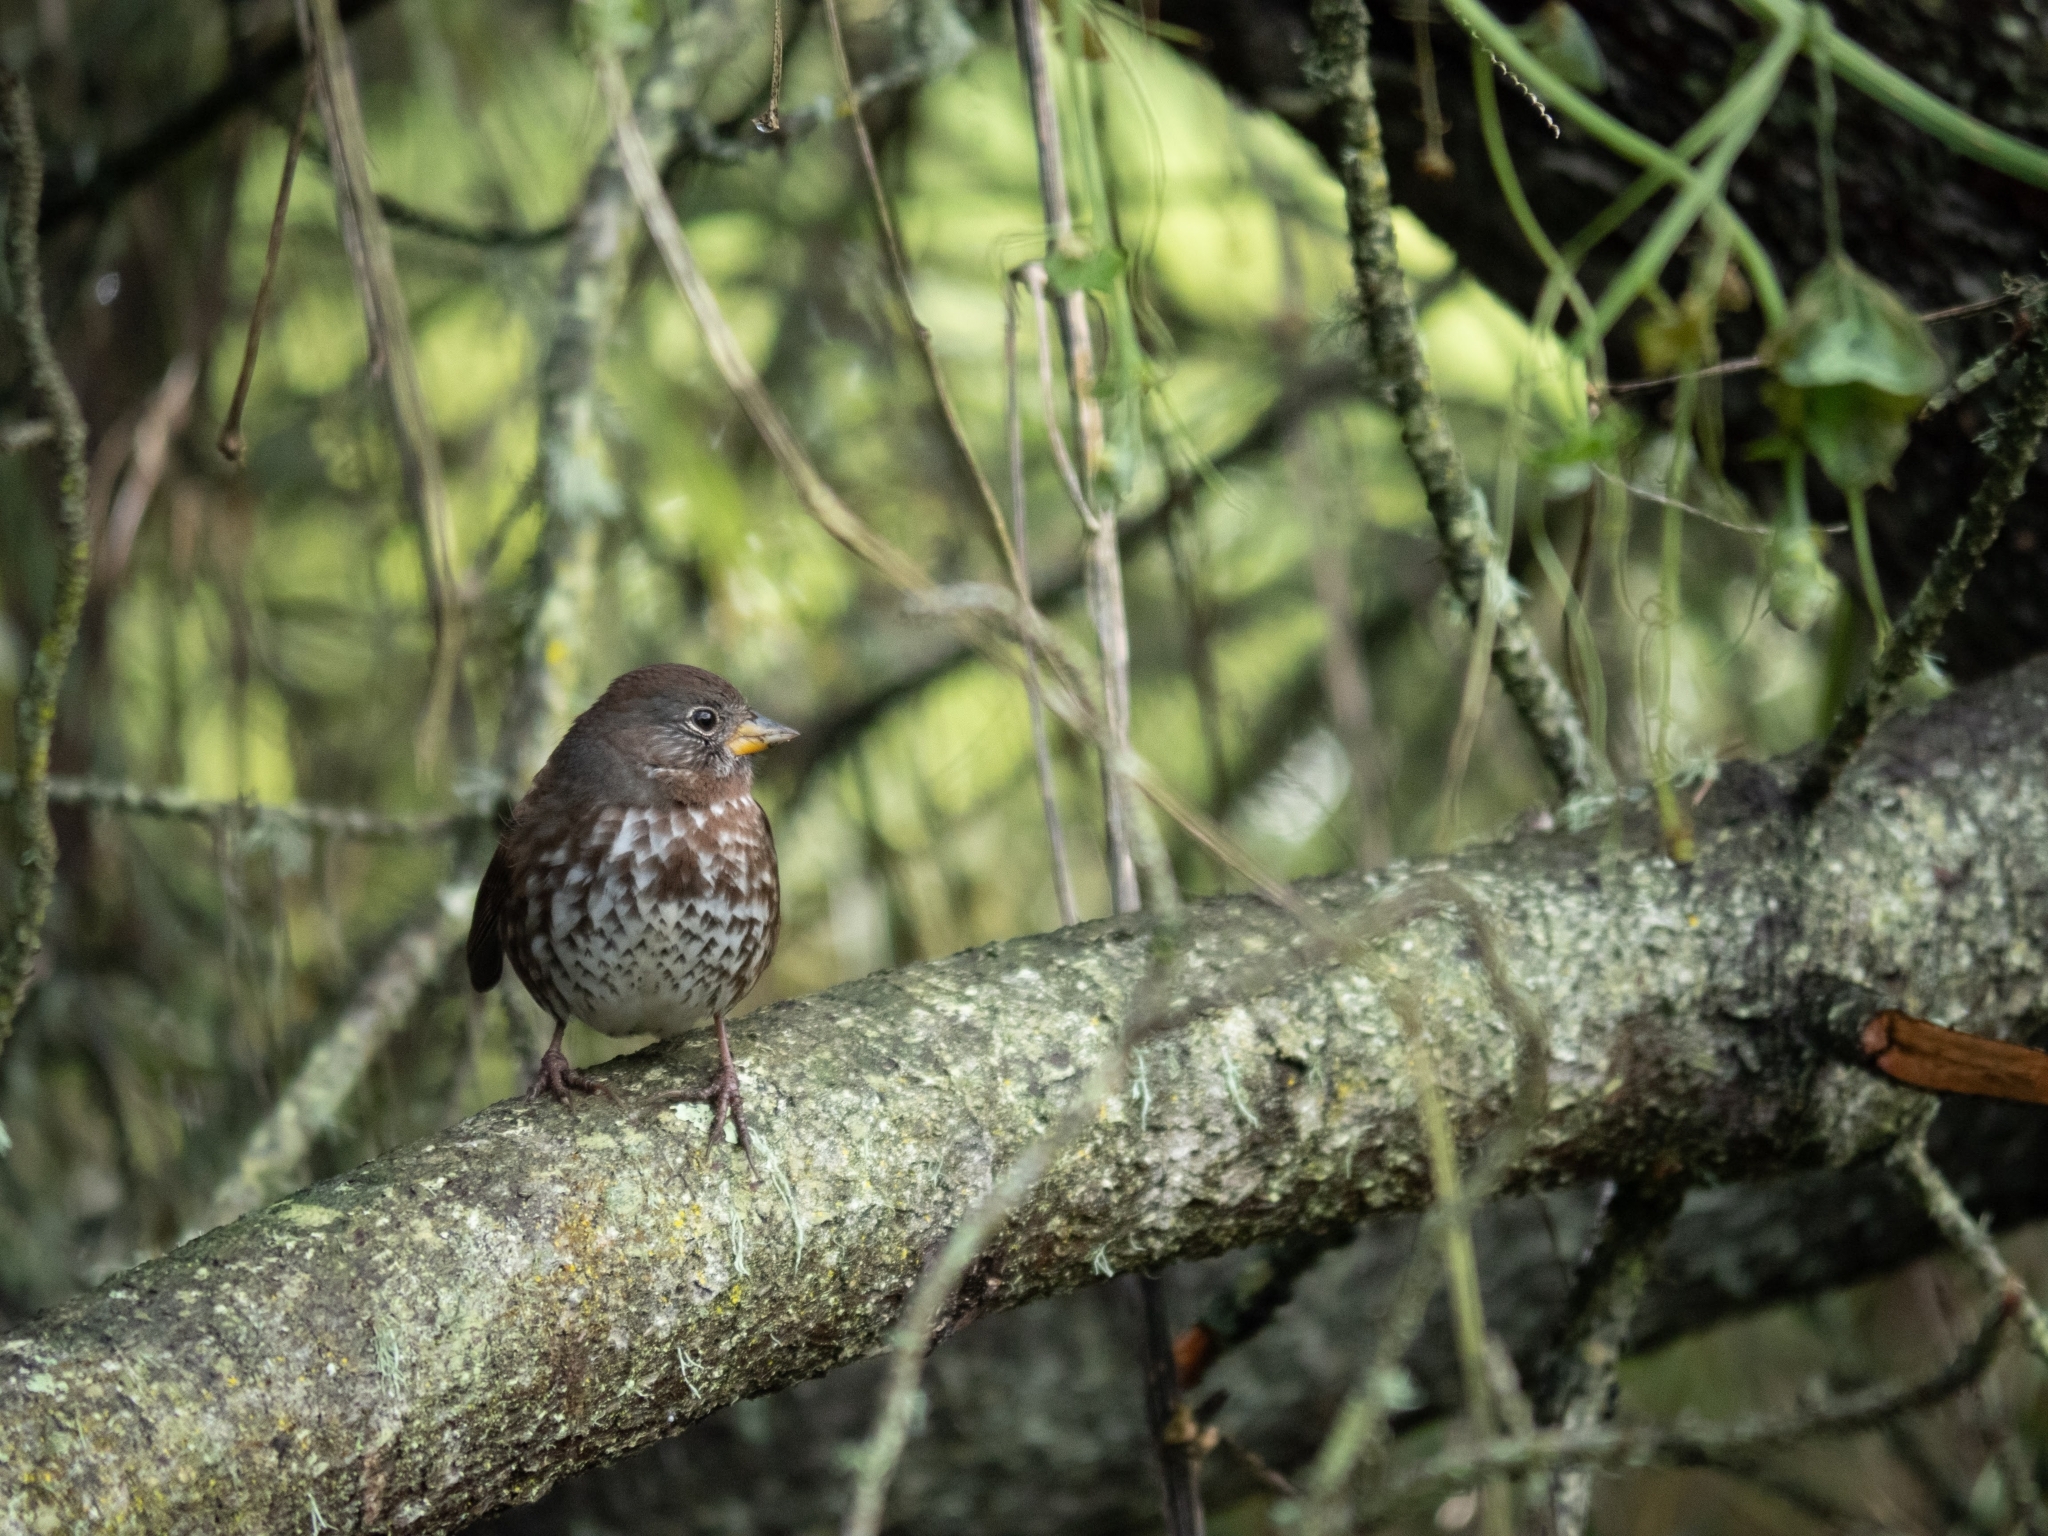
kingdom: Animalia
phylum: Chordata
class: Aves
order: Passeriformes
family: Passerellidae
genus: Passerella
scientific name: Passerella iliaca
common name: Fox sparrow
